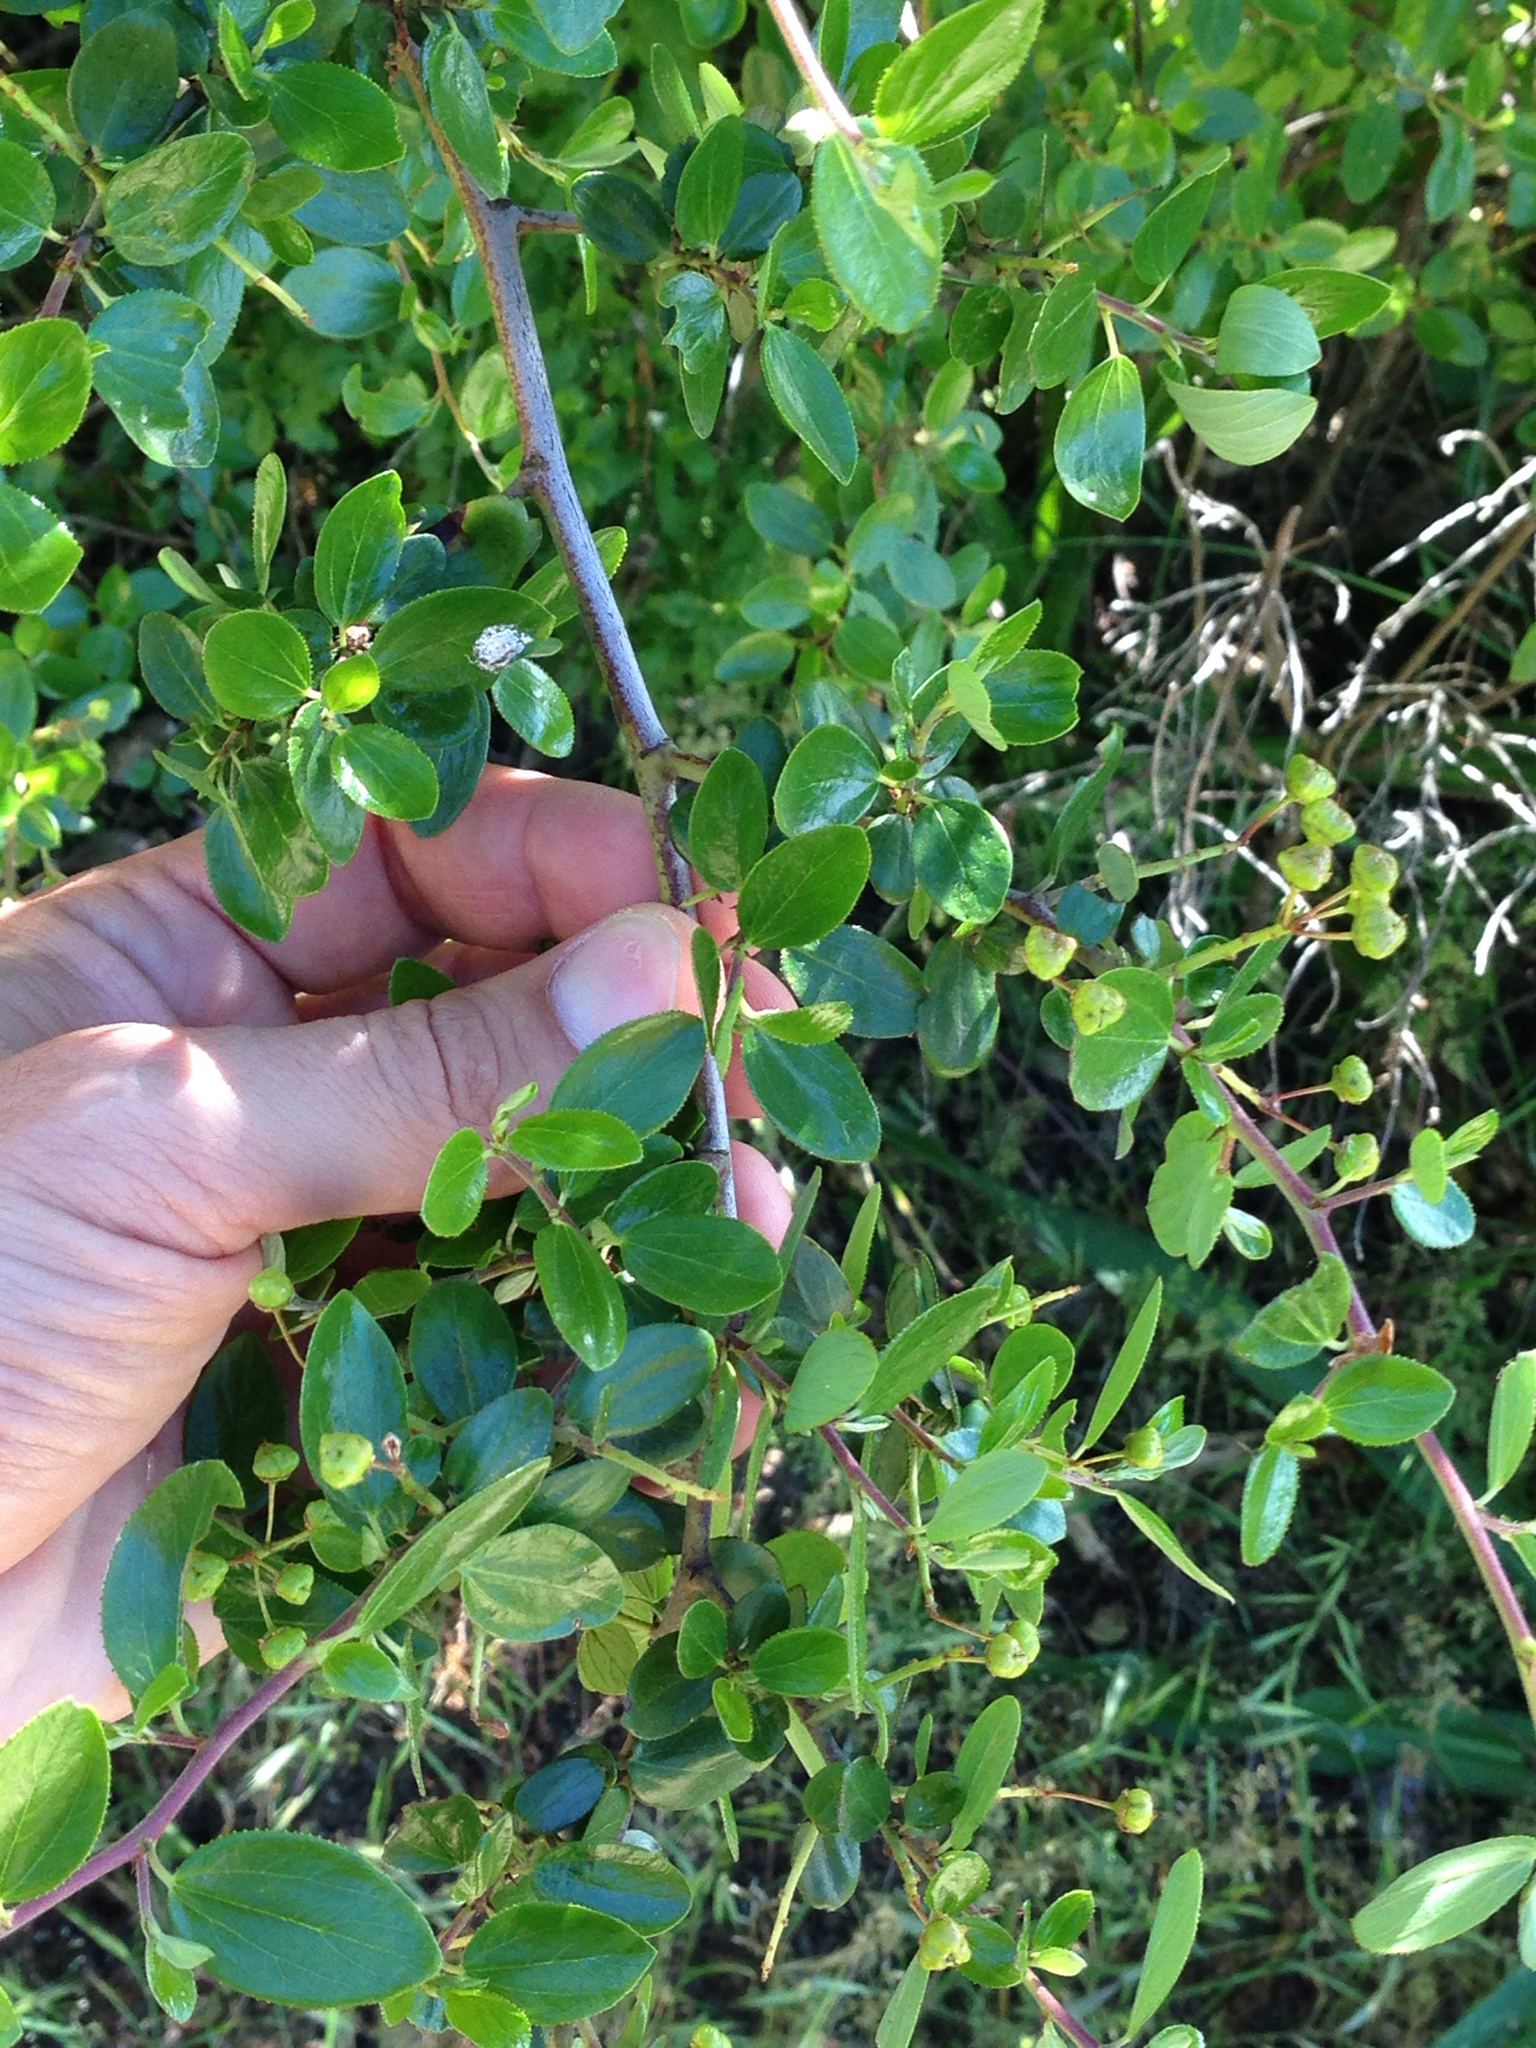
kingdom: Plantae
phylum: Tracheophyta
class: Magnoliopsida
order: Rosales
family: Rhamnaceae
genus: Ceanothus
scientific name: Ceanothus oliganthus
